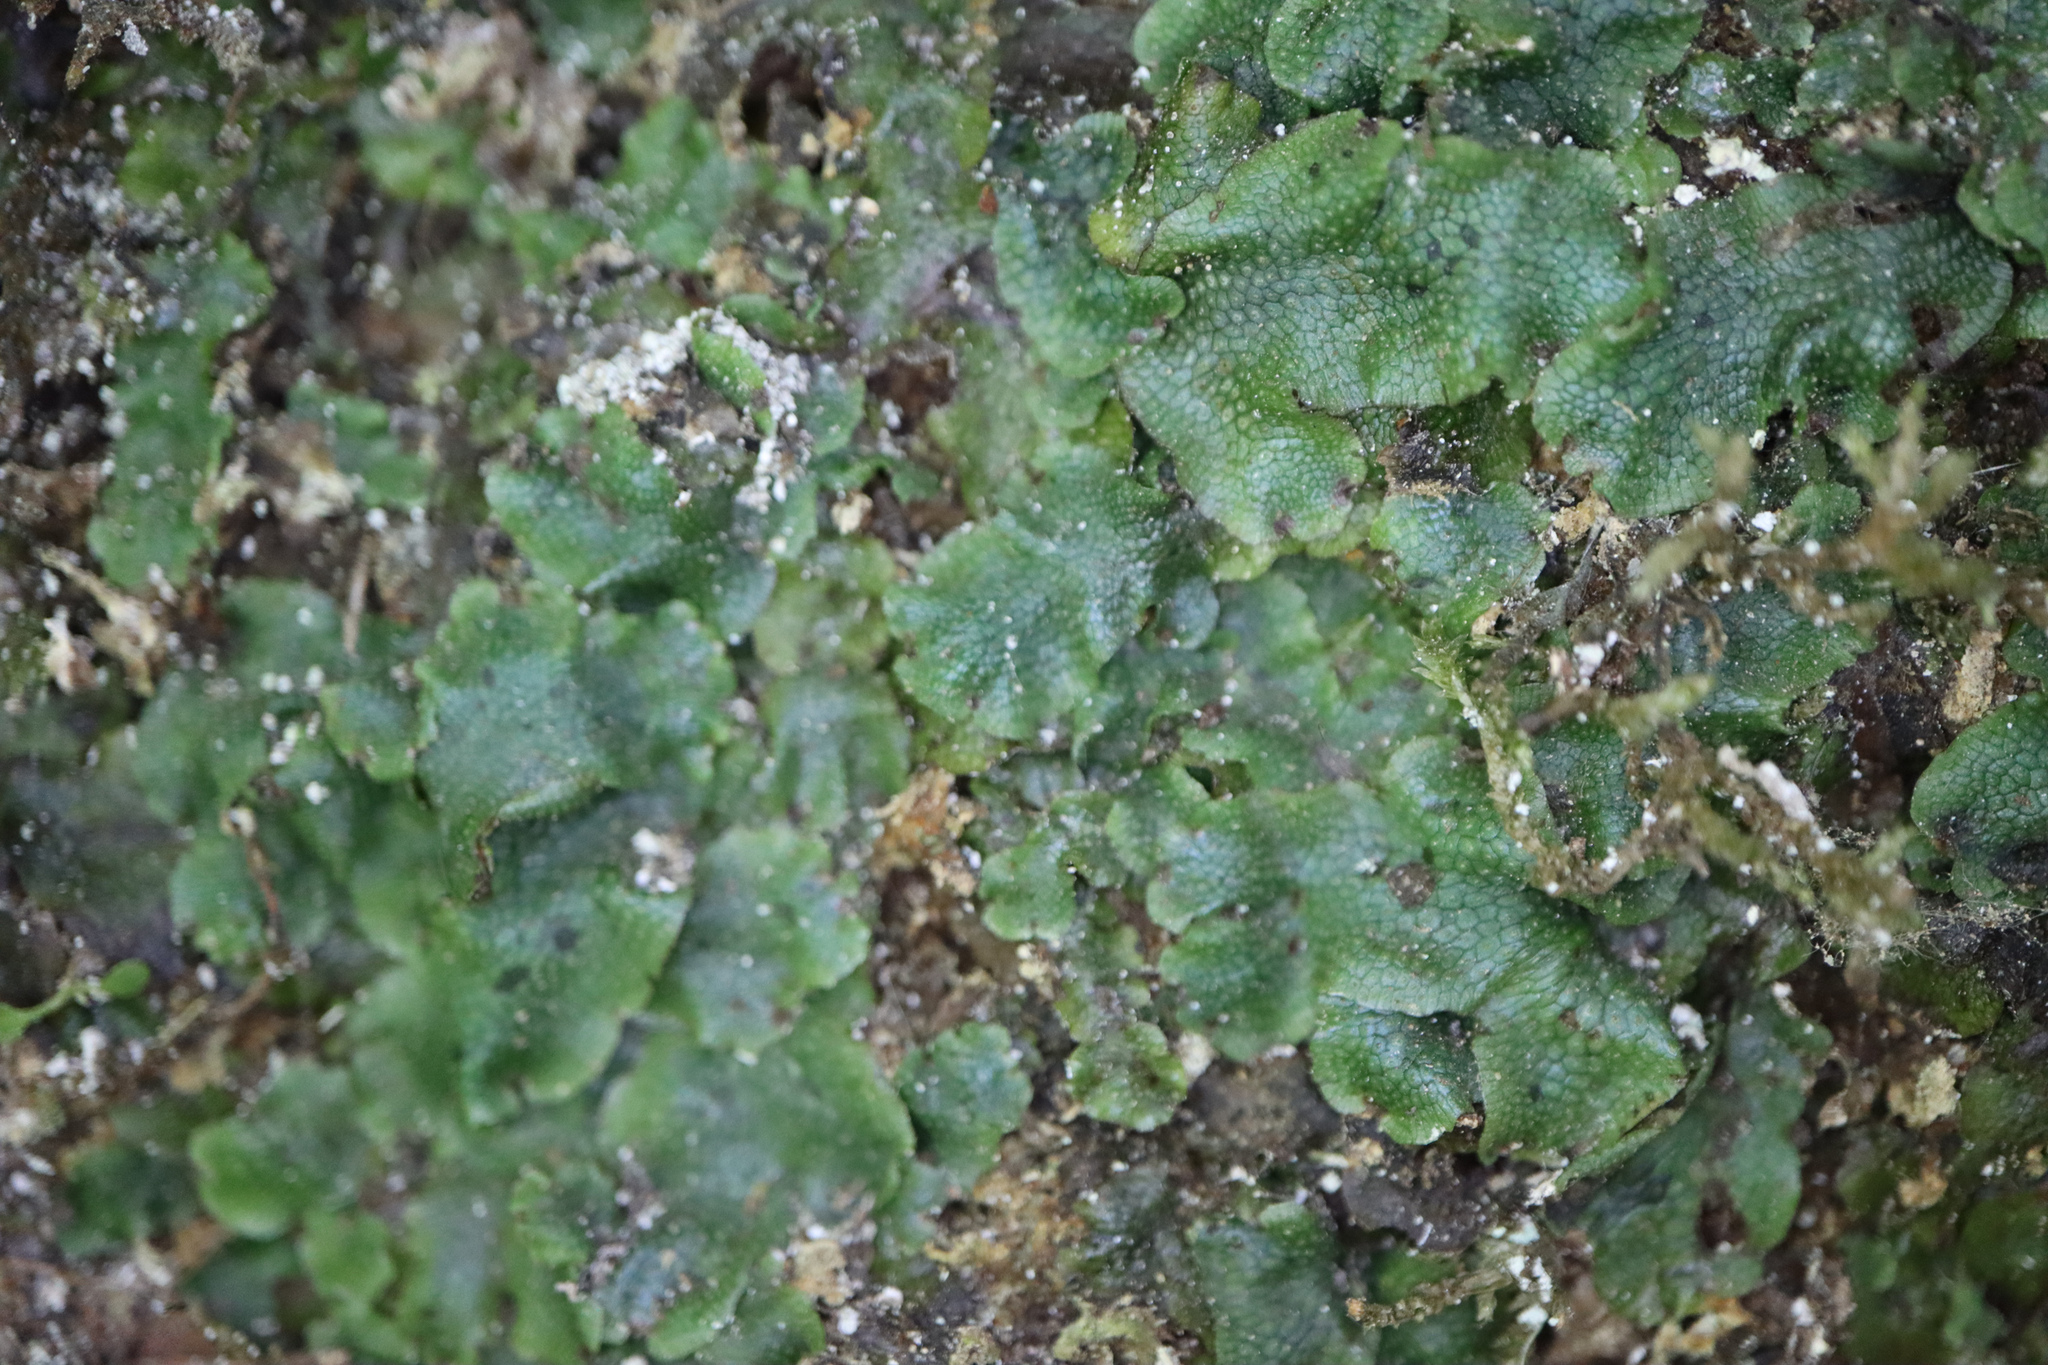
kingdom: Plantae
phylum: Marchantiophyta
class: Marchantiopsida
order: Marchantiales
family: Conocephalaceae
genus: Conocephalum
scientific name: Conocephalum conicum
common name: Great scented liverwort
